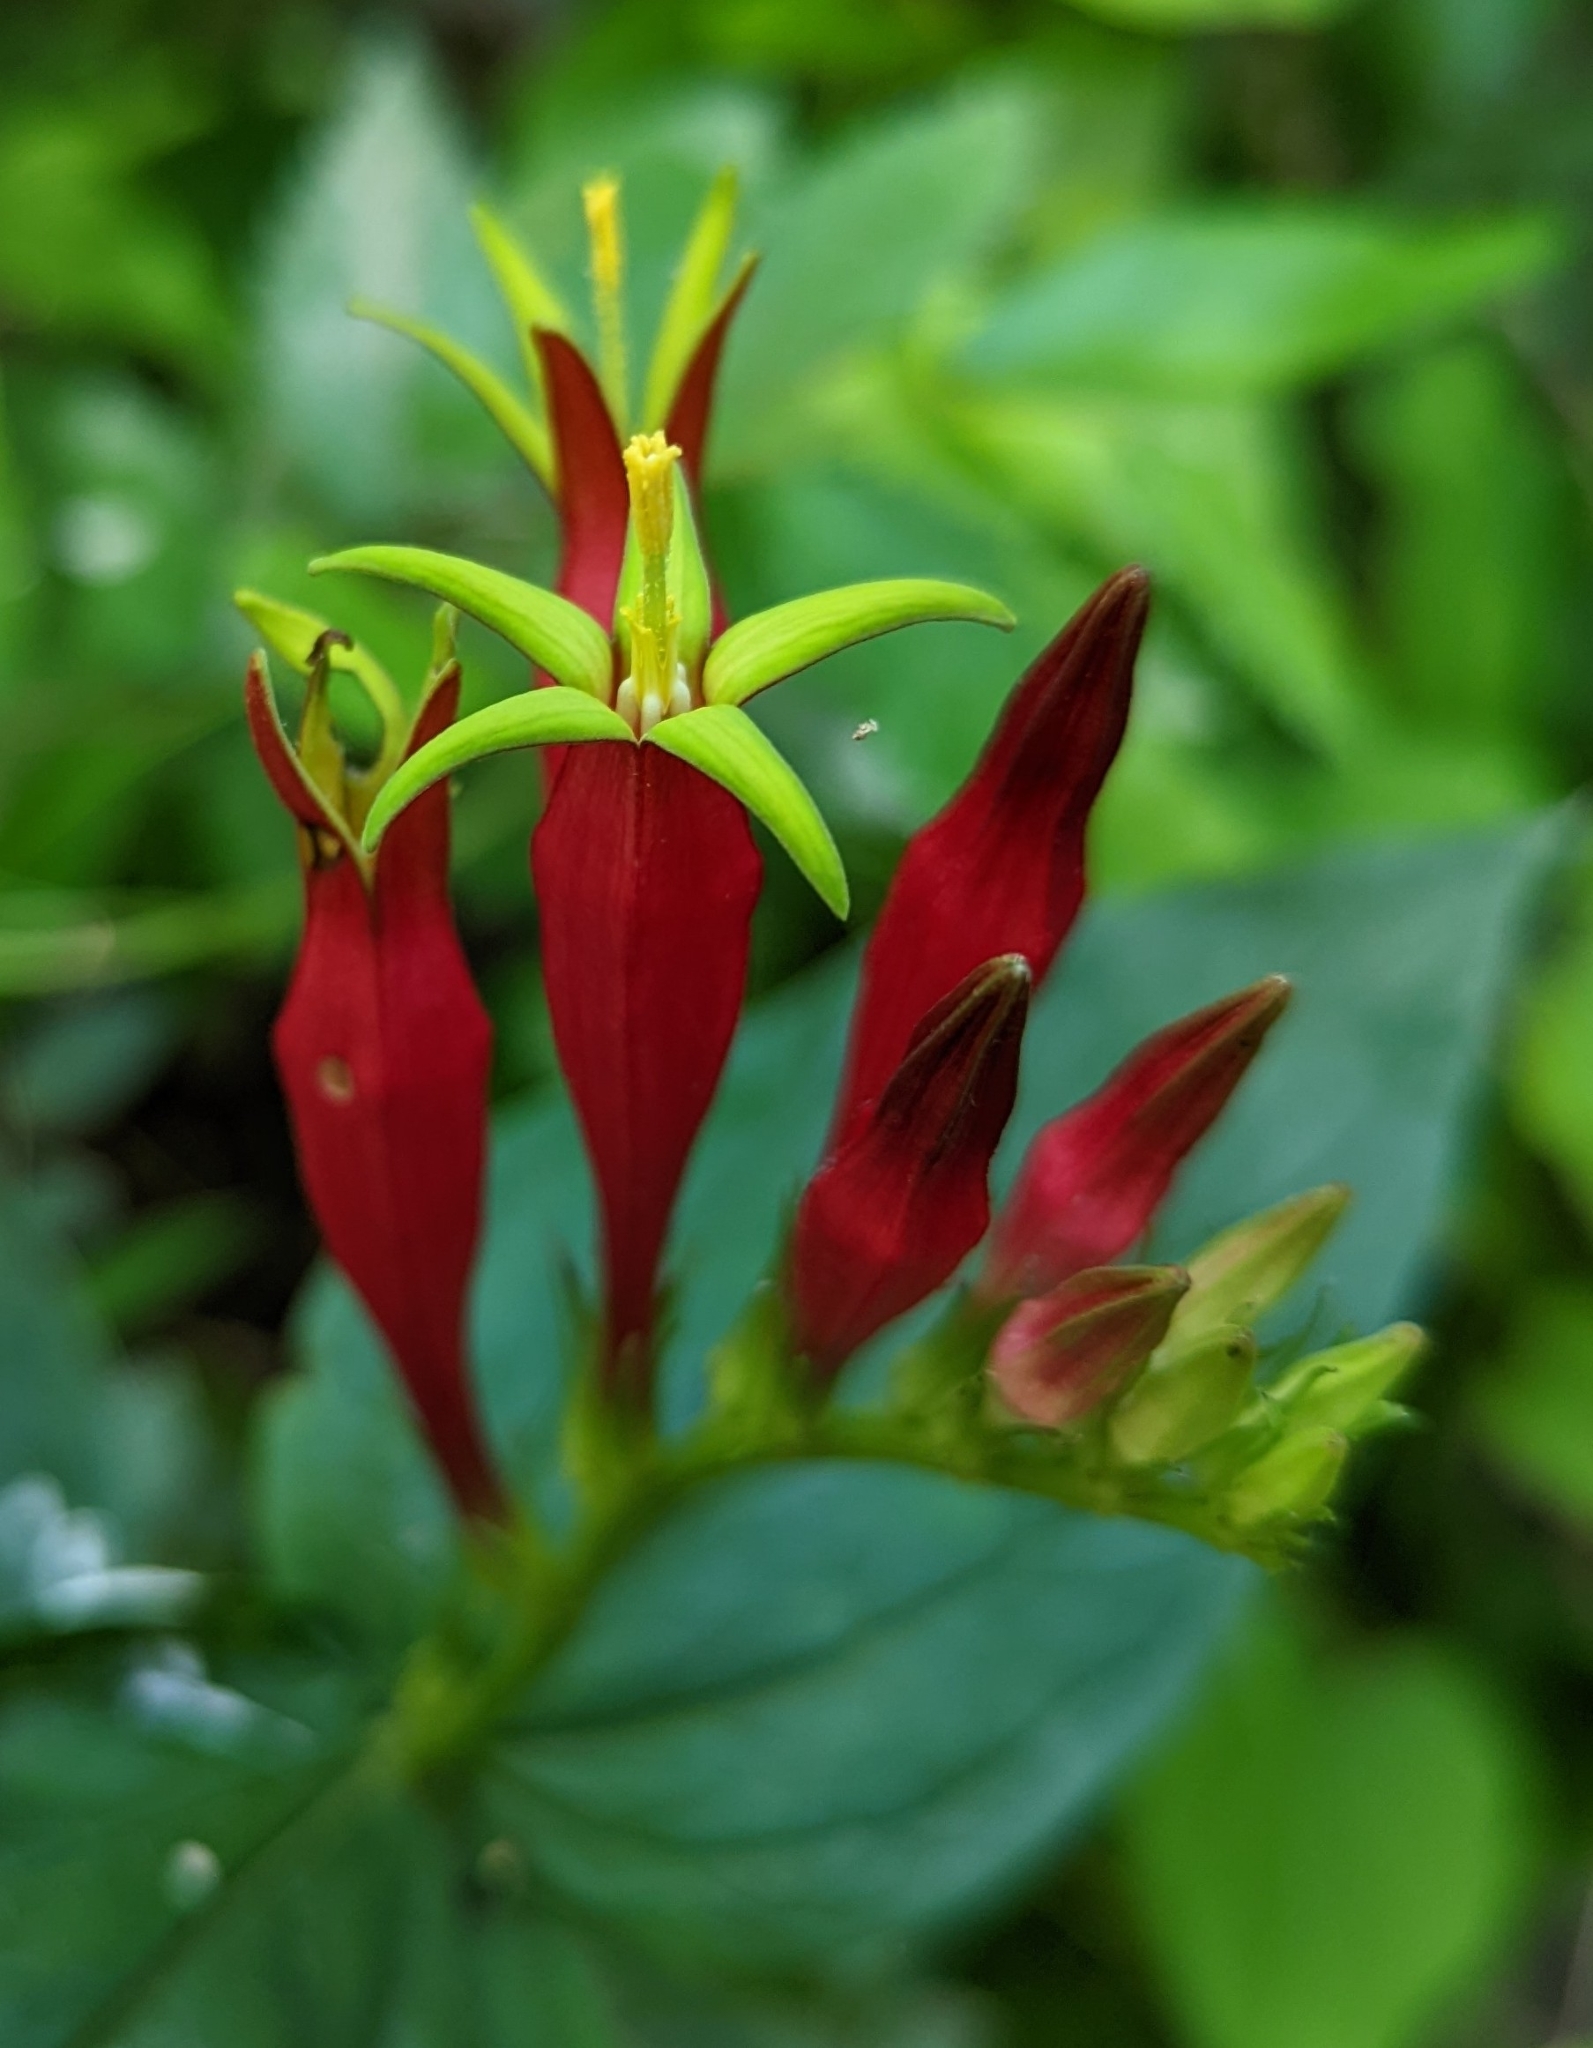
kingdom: Plantae
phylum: Tracheophyta
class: Magnoliopsida
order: Gentianales
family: Loganiaceae
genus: Spigelia
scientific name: Spigelia marilandica
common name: Indian-pink
